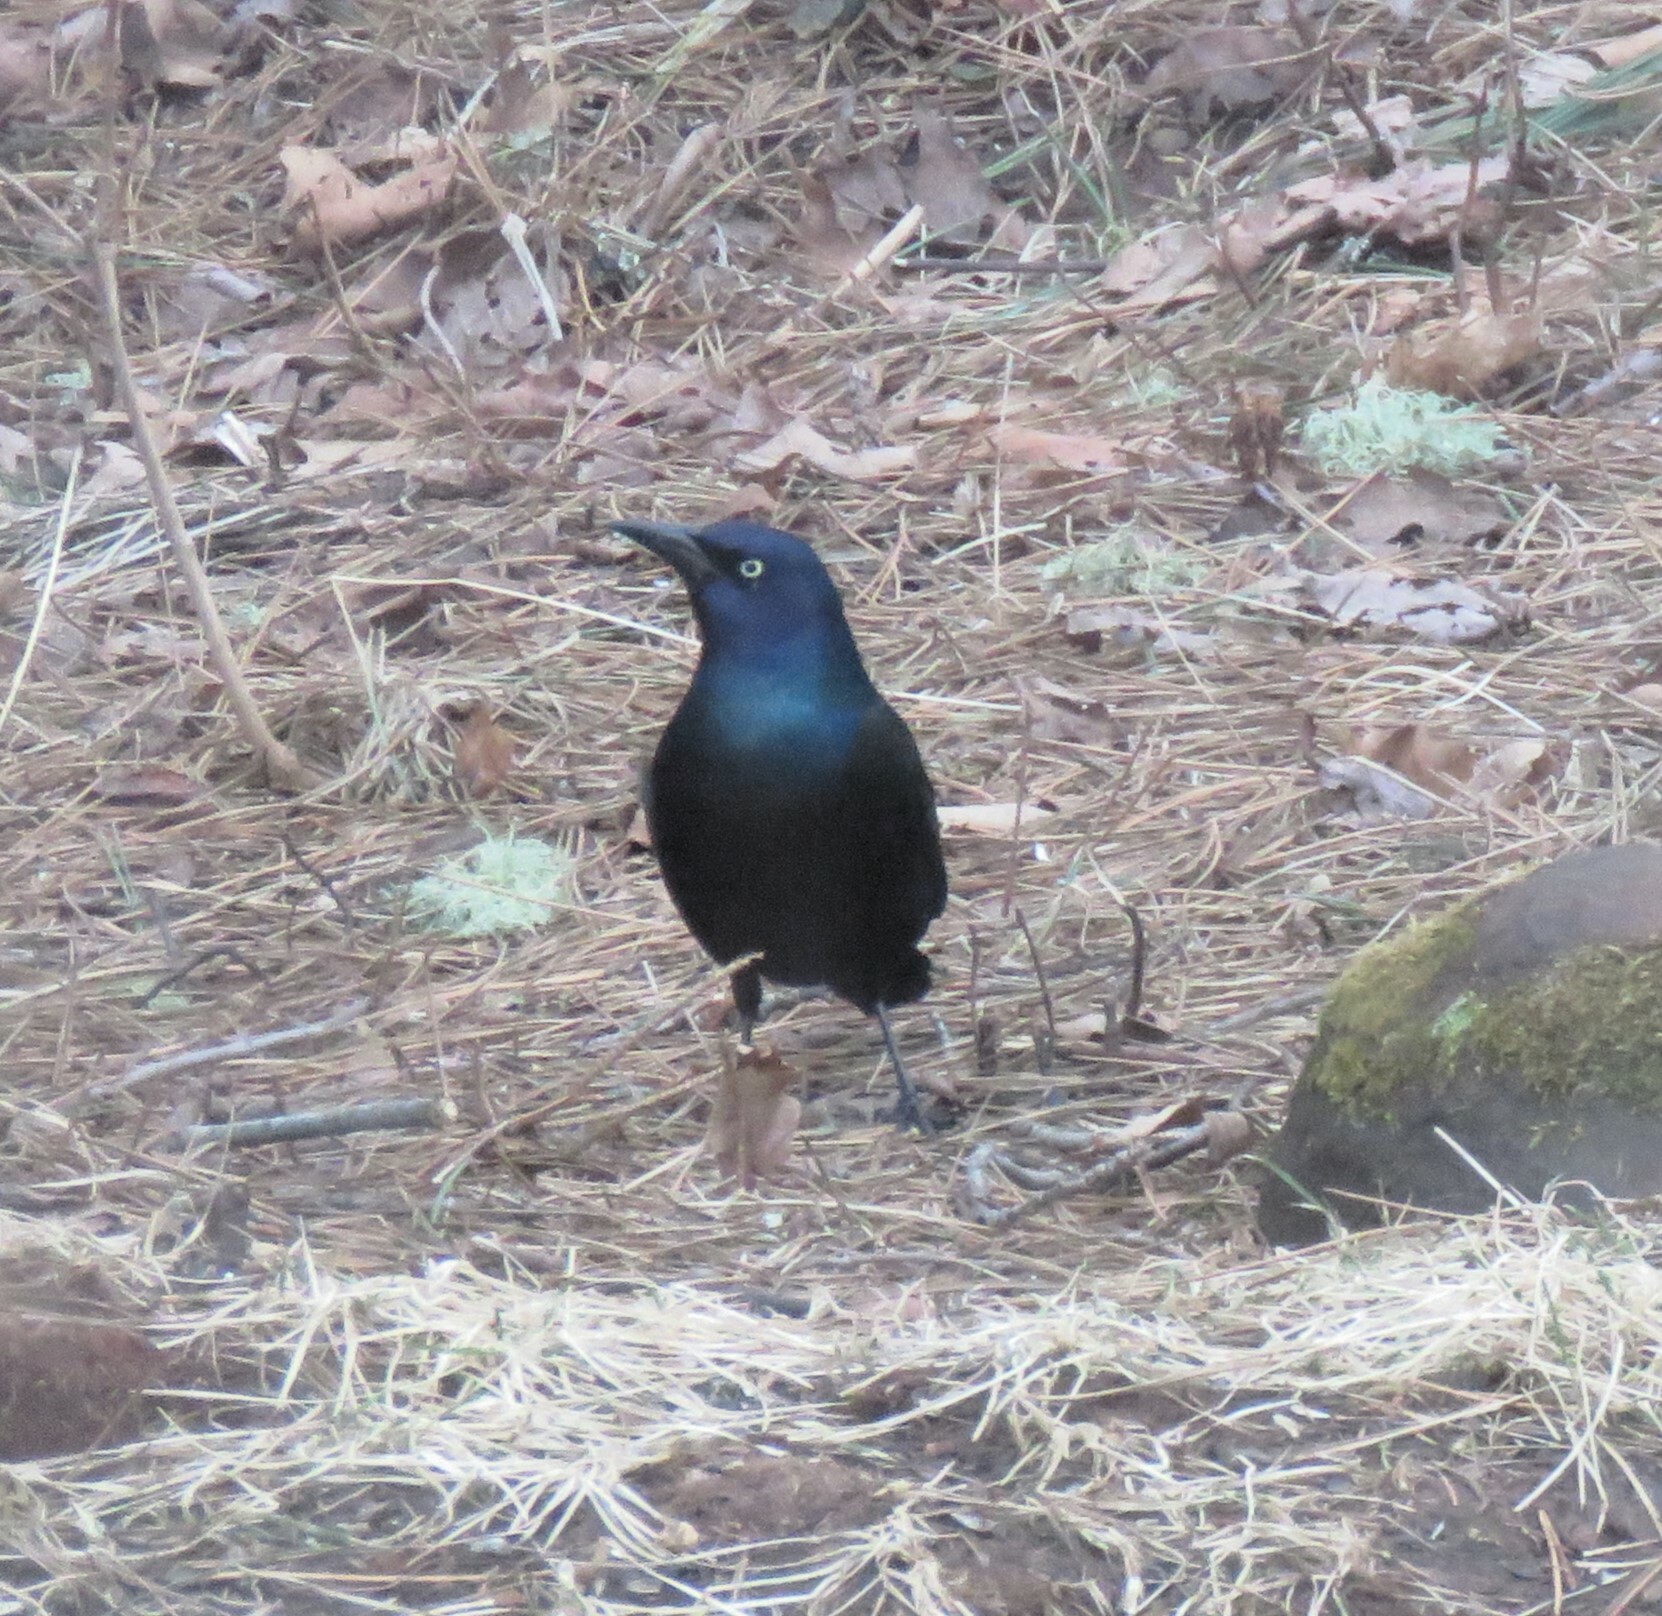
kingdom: Animalia
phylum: Chordata
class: Aves
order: Passeriformes
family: Icteridae
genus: Quiscalus
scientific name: Quiscalus quiscula
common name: Common grackle
